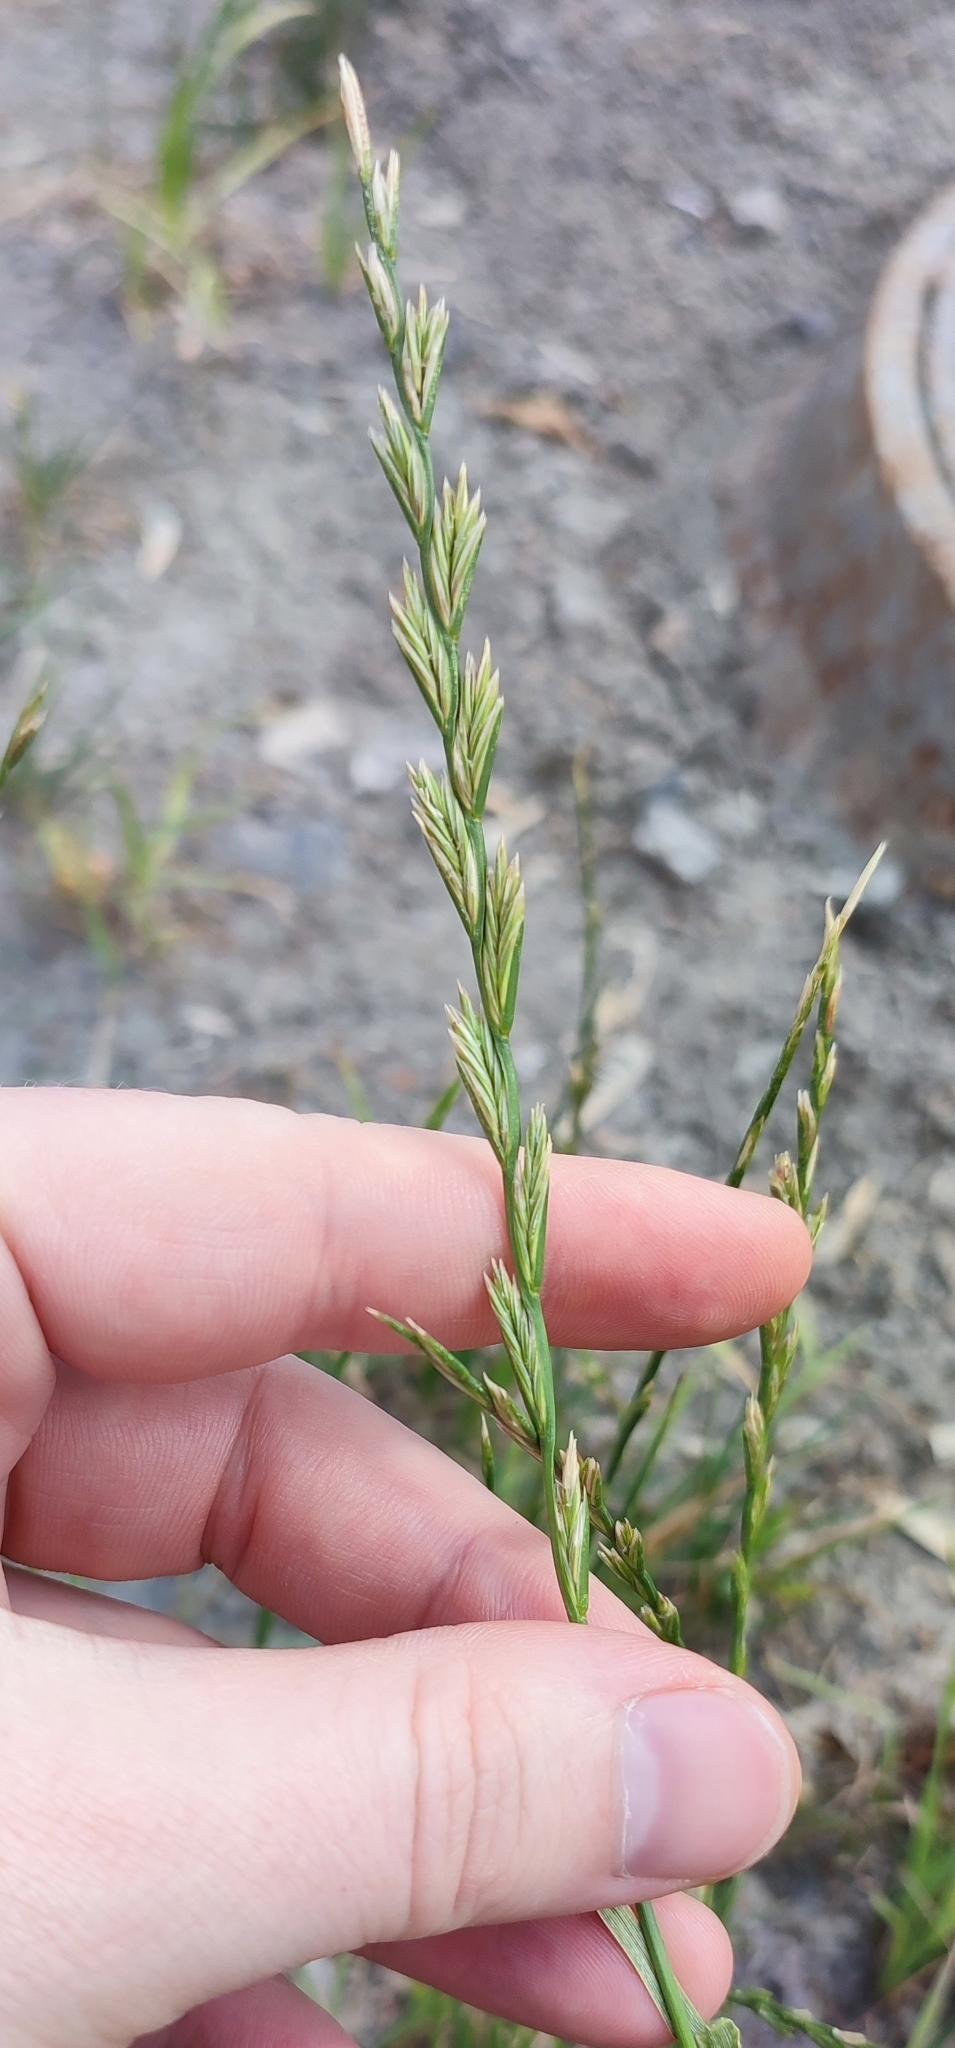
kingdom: Plantae
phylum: Tracheophyta
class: Liliopsida
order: Poales
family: Poaceae
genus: Lolium
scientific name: Lolium perenne
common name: Perennial ryegrass
